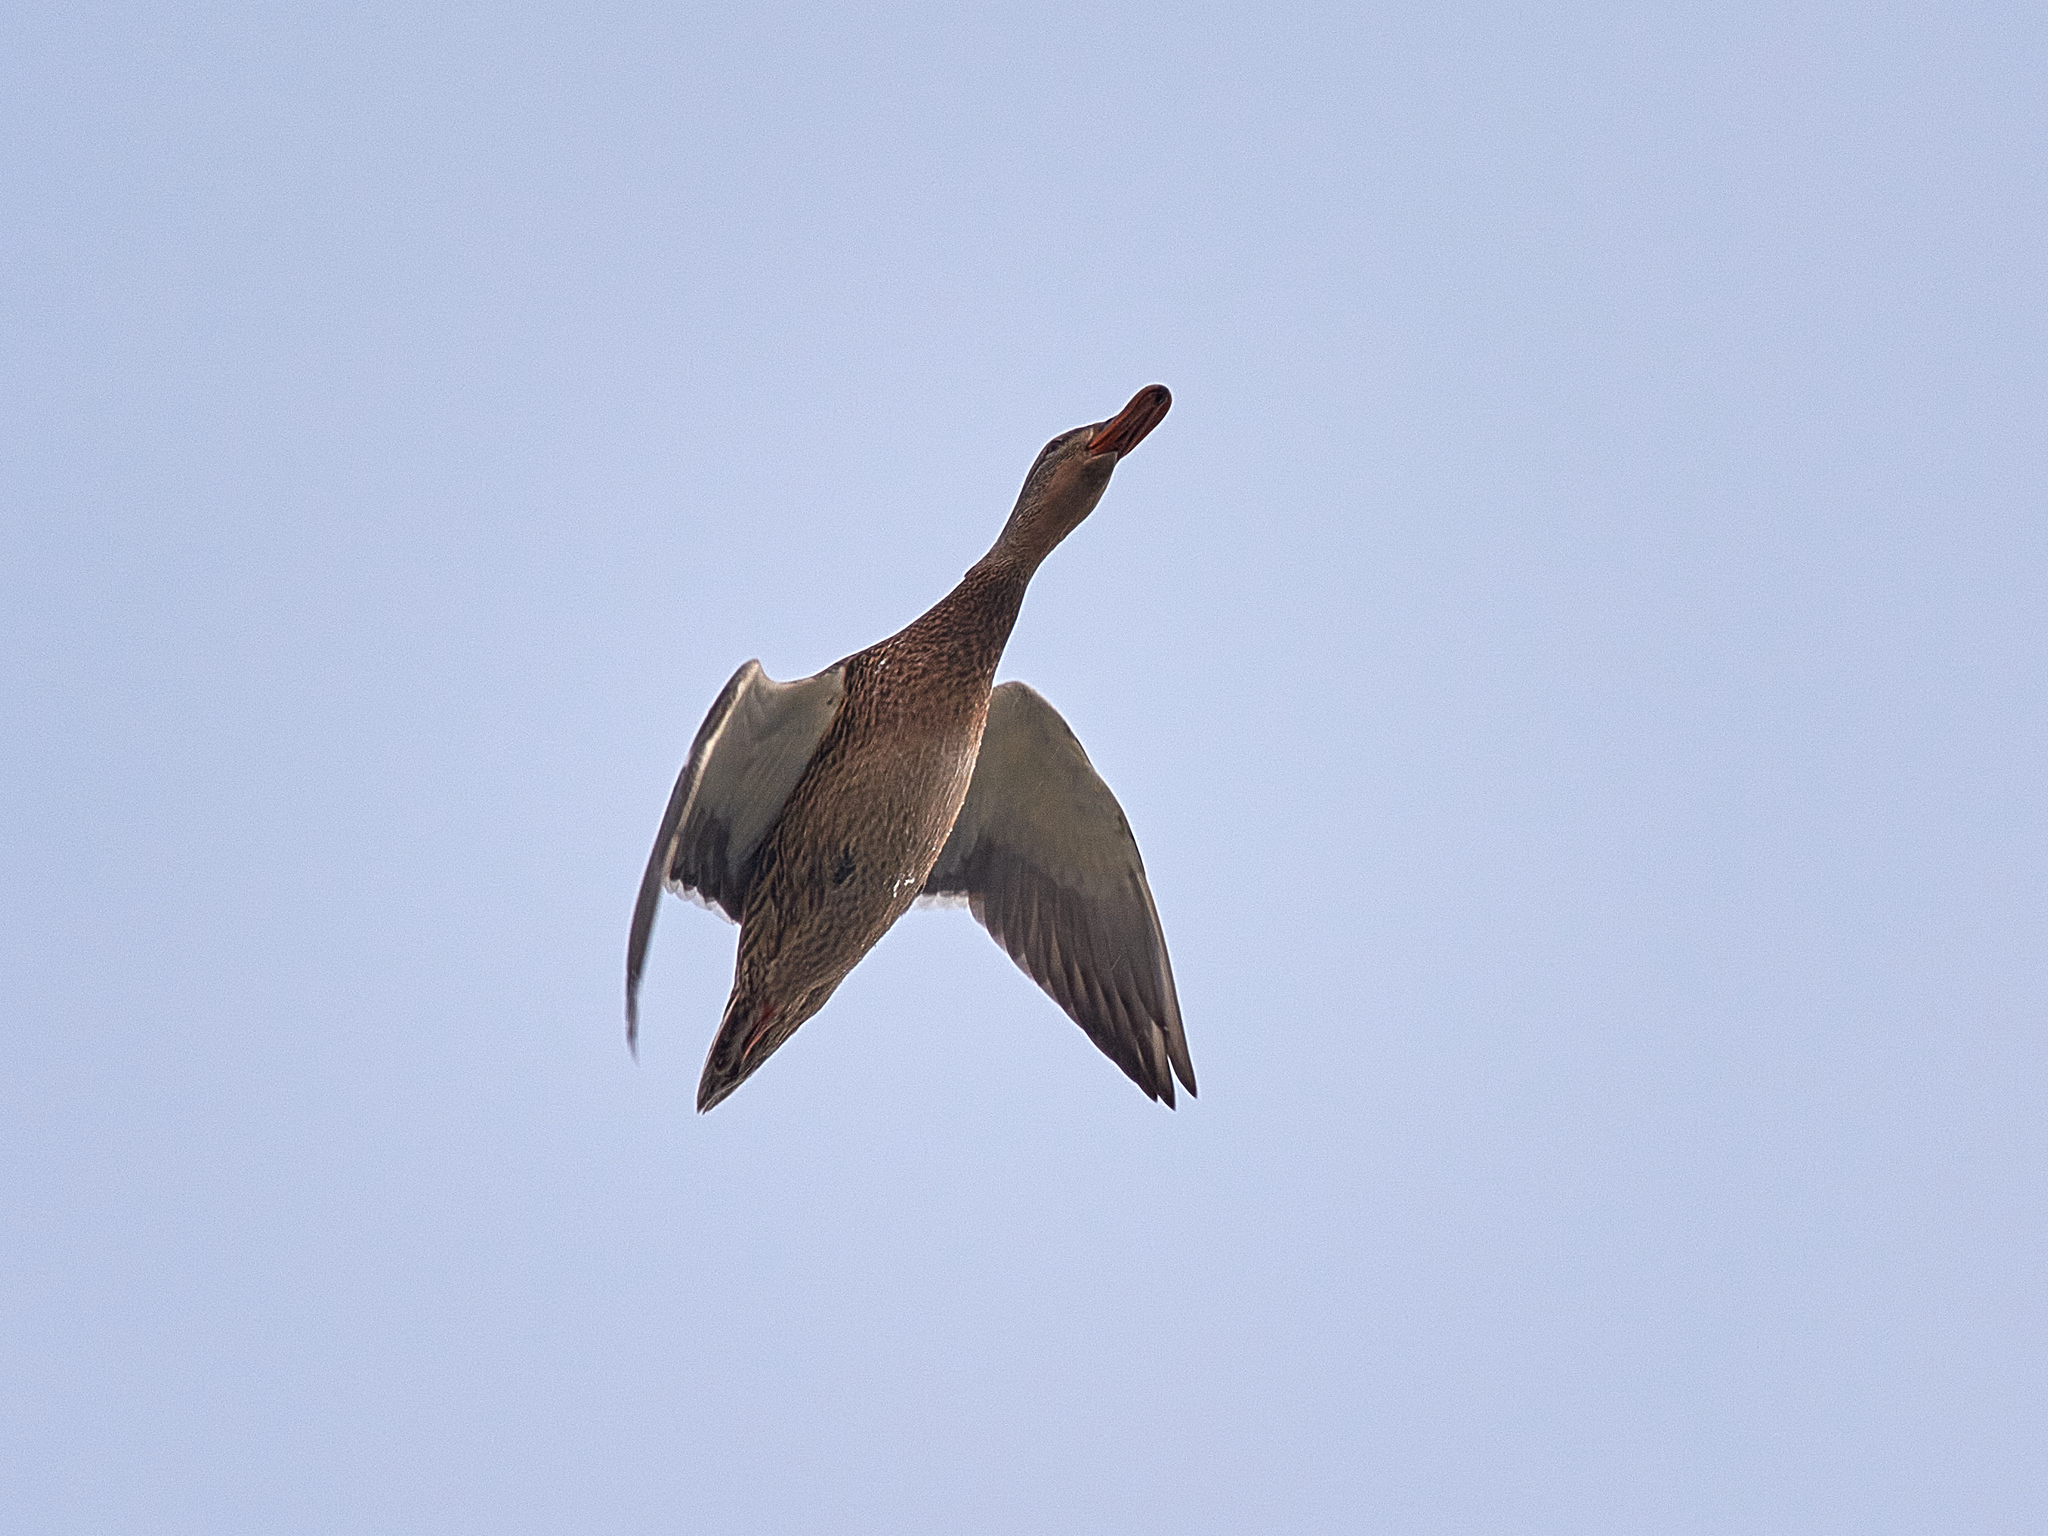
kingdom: Animalia
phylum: Chordata
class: Aves
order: Anseriformes
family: Anatidae
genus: Anas
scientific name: Anas platyrhynchos
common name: Mallard
